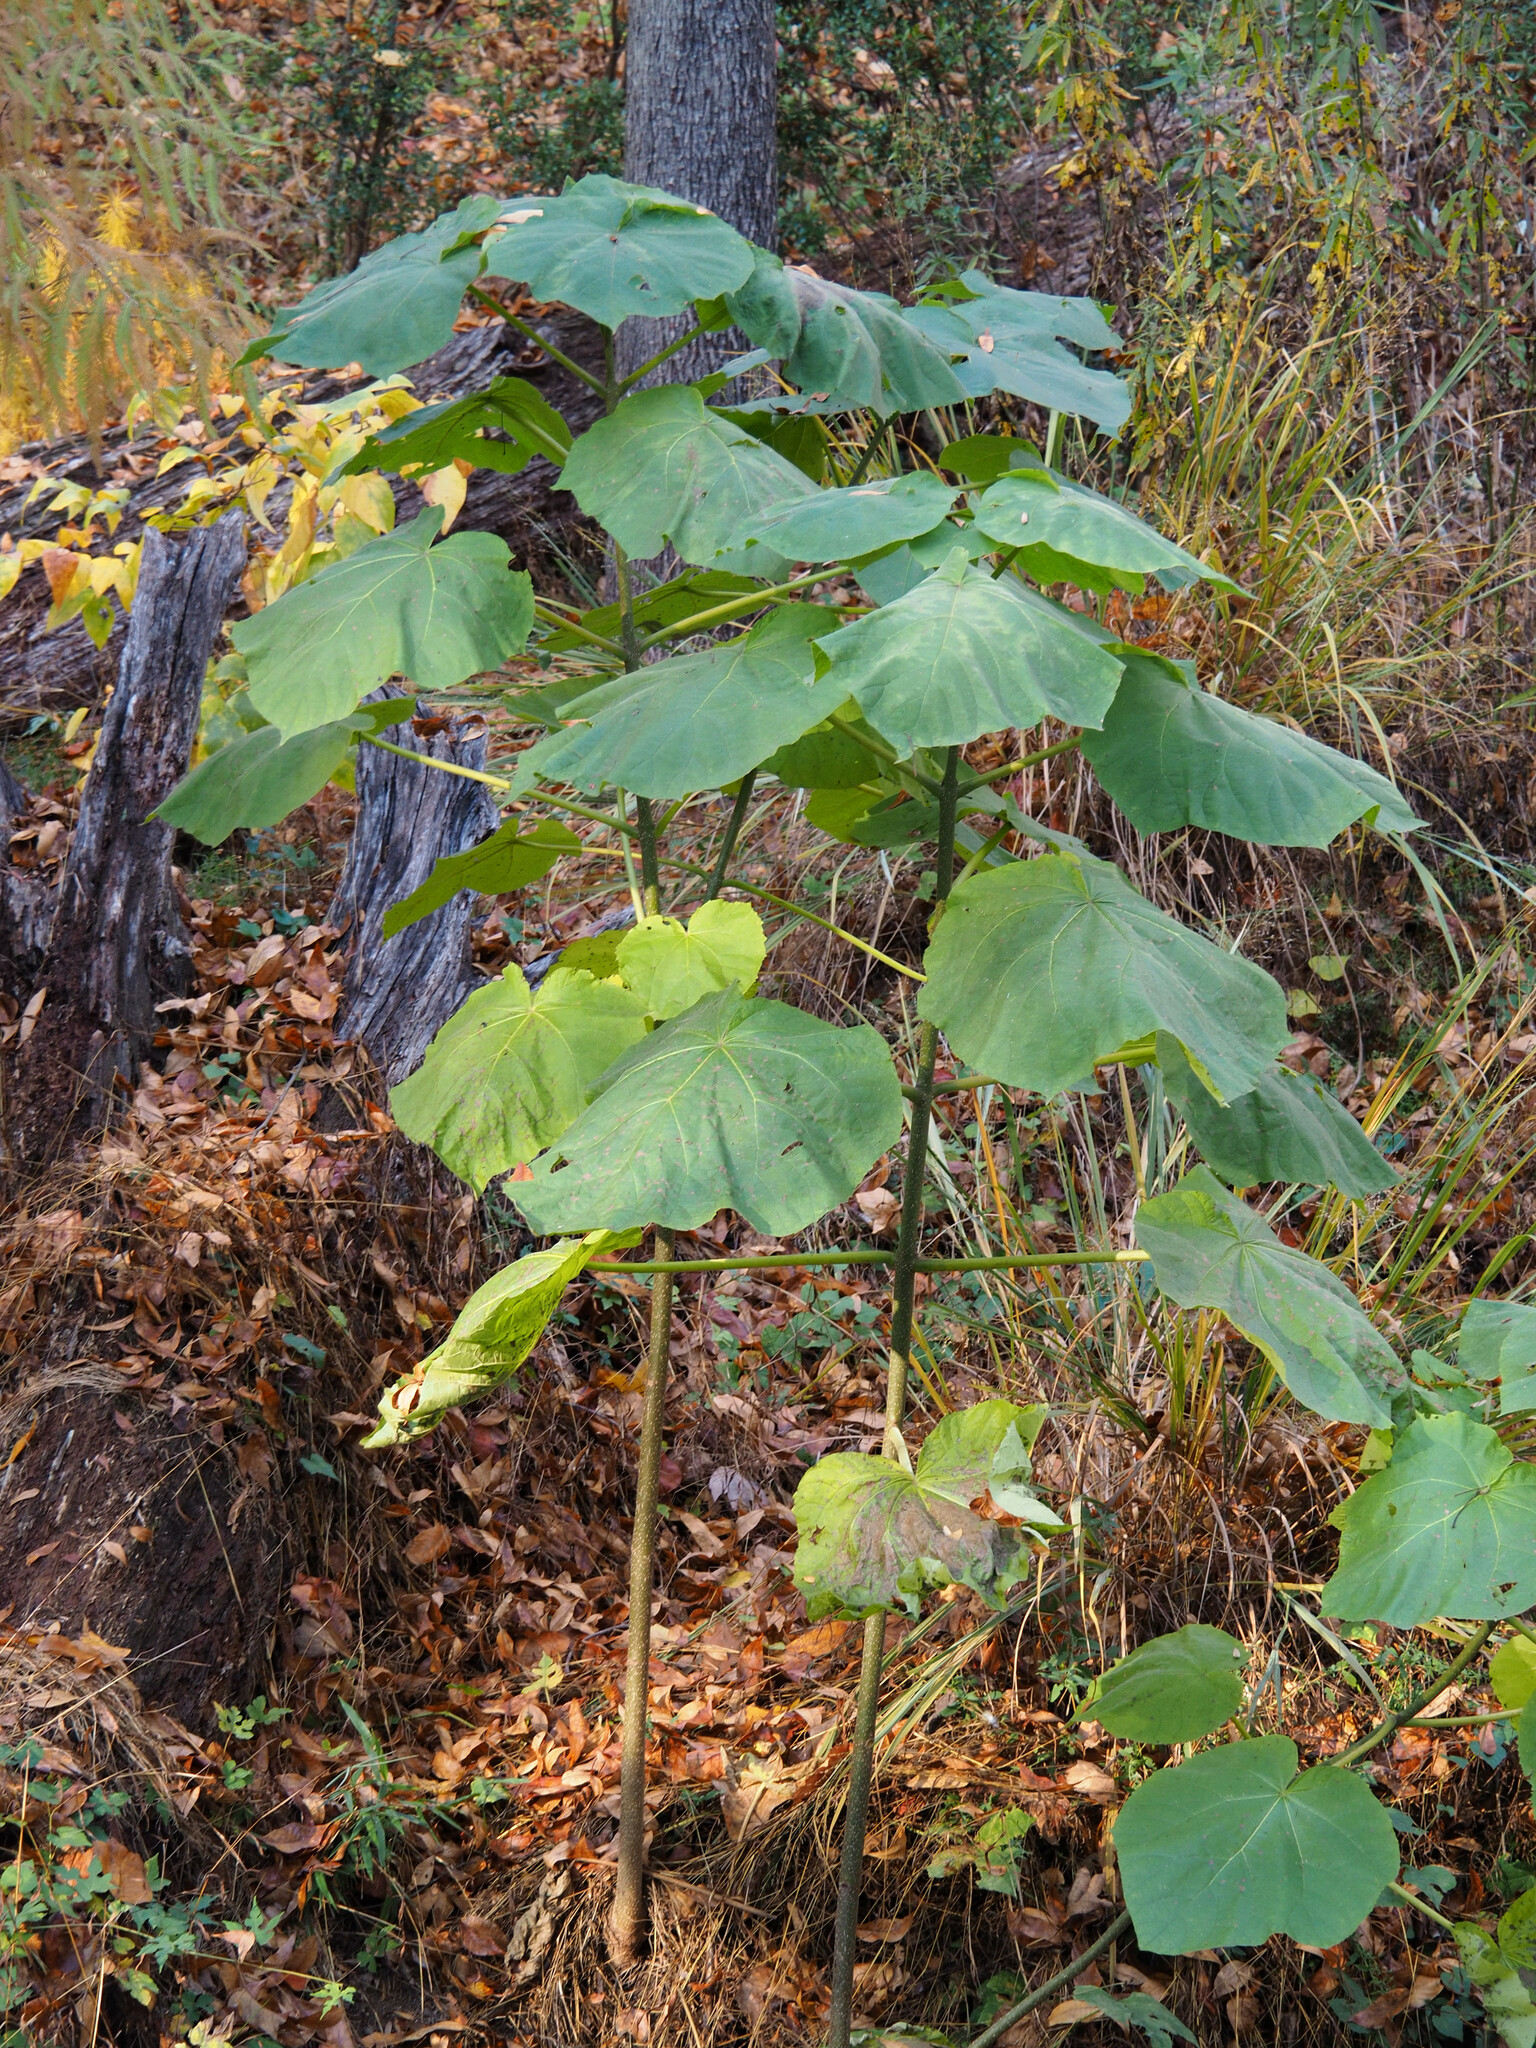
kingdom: Plantae
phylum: Tracheophyta
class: Magnoliopsida
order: Lamiales
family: Paulowniaceae
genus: Paulownia
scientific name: Paulownia tomentosa
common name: Foxglove-tree
